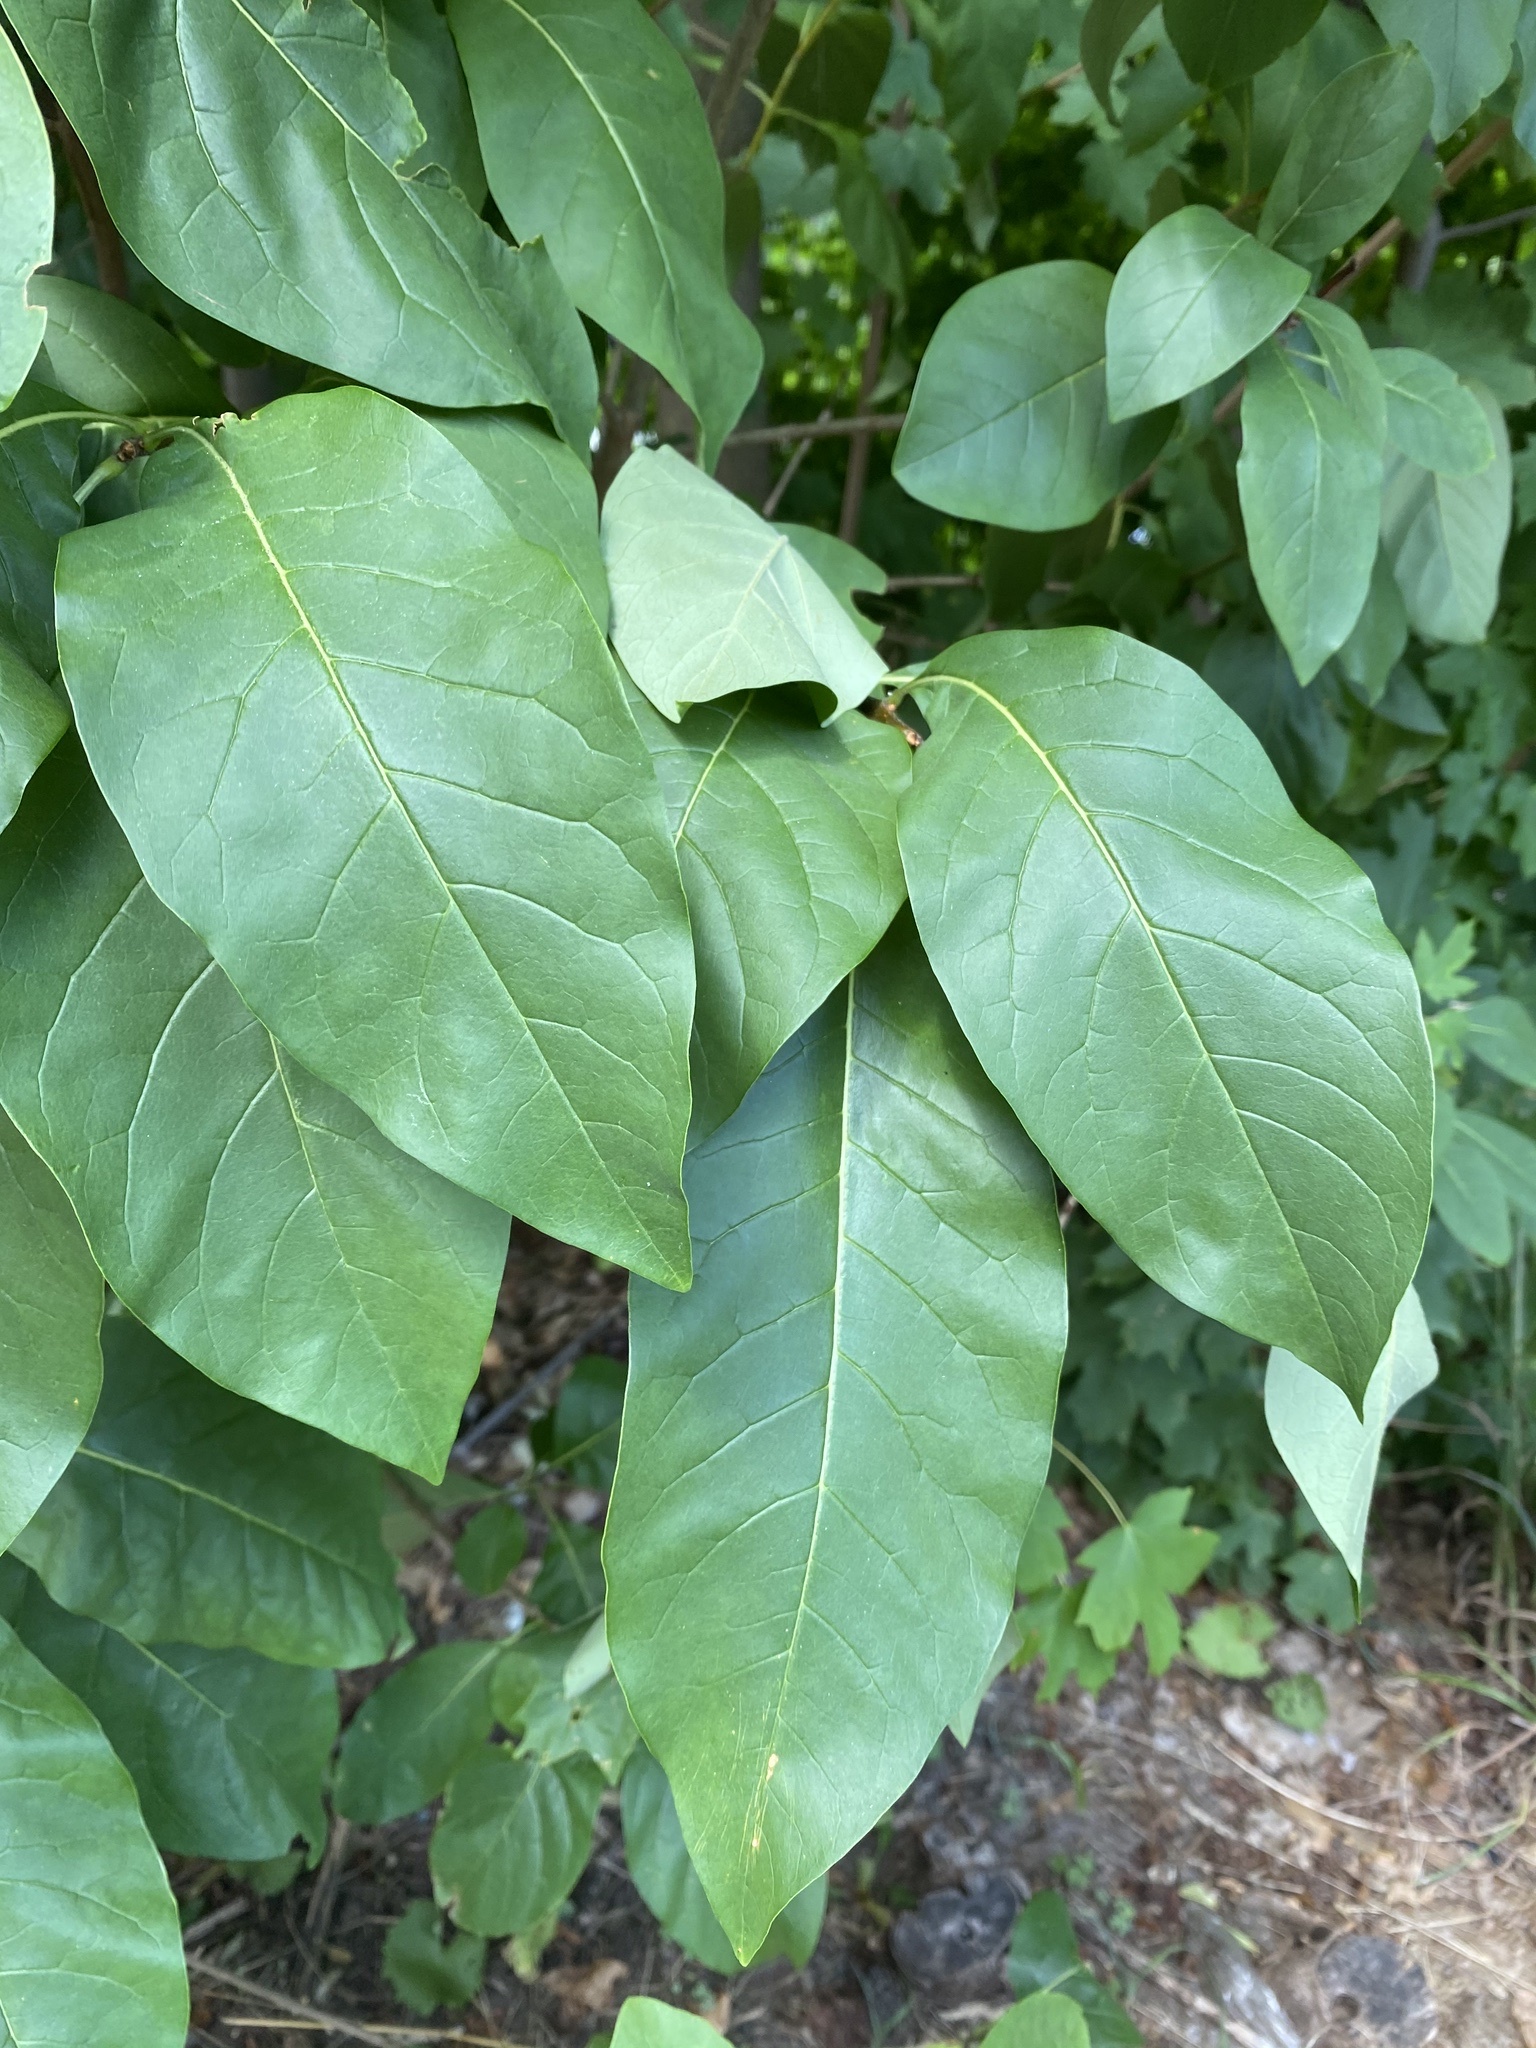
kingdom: Plantae
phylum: Tracheophyta
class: Magnoliopsida
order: Lamiales
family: Oleaceae
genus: Chionanthus
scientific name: Chionanthus virginicus
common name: American fringetree
